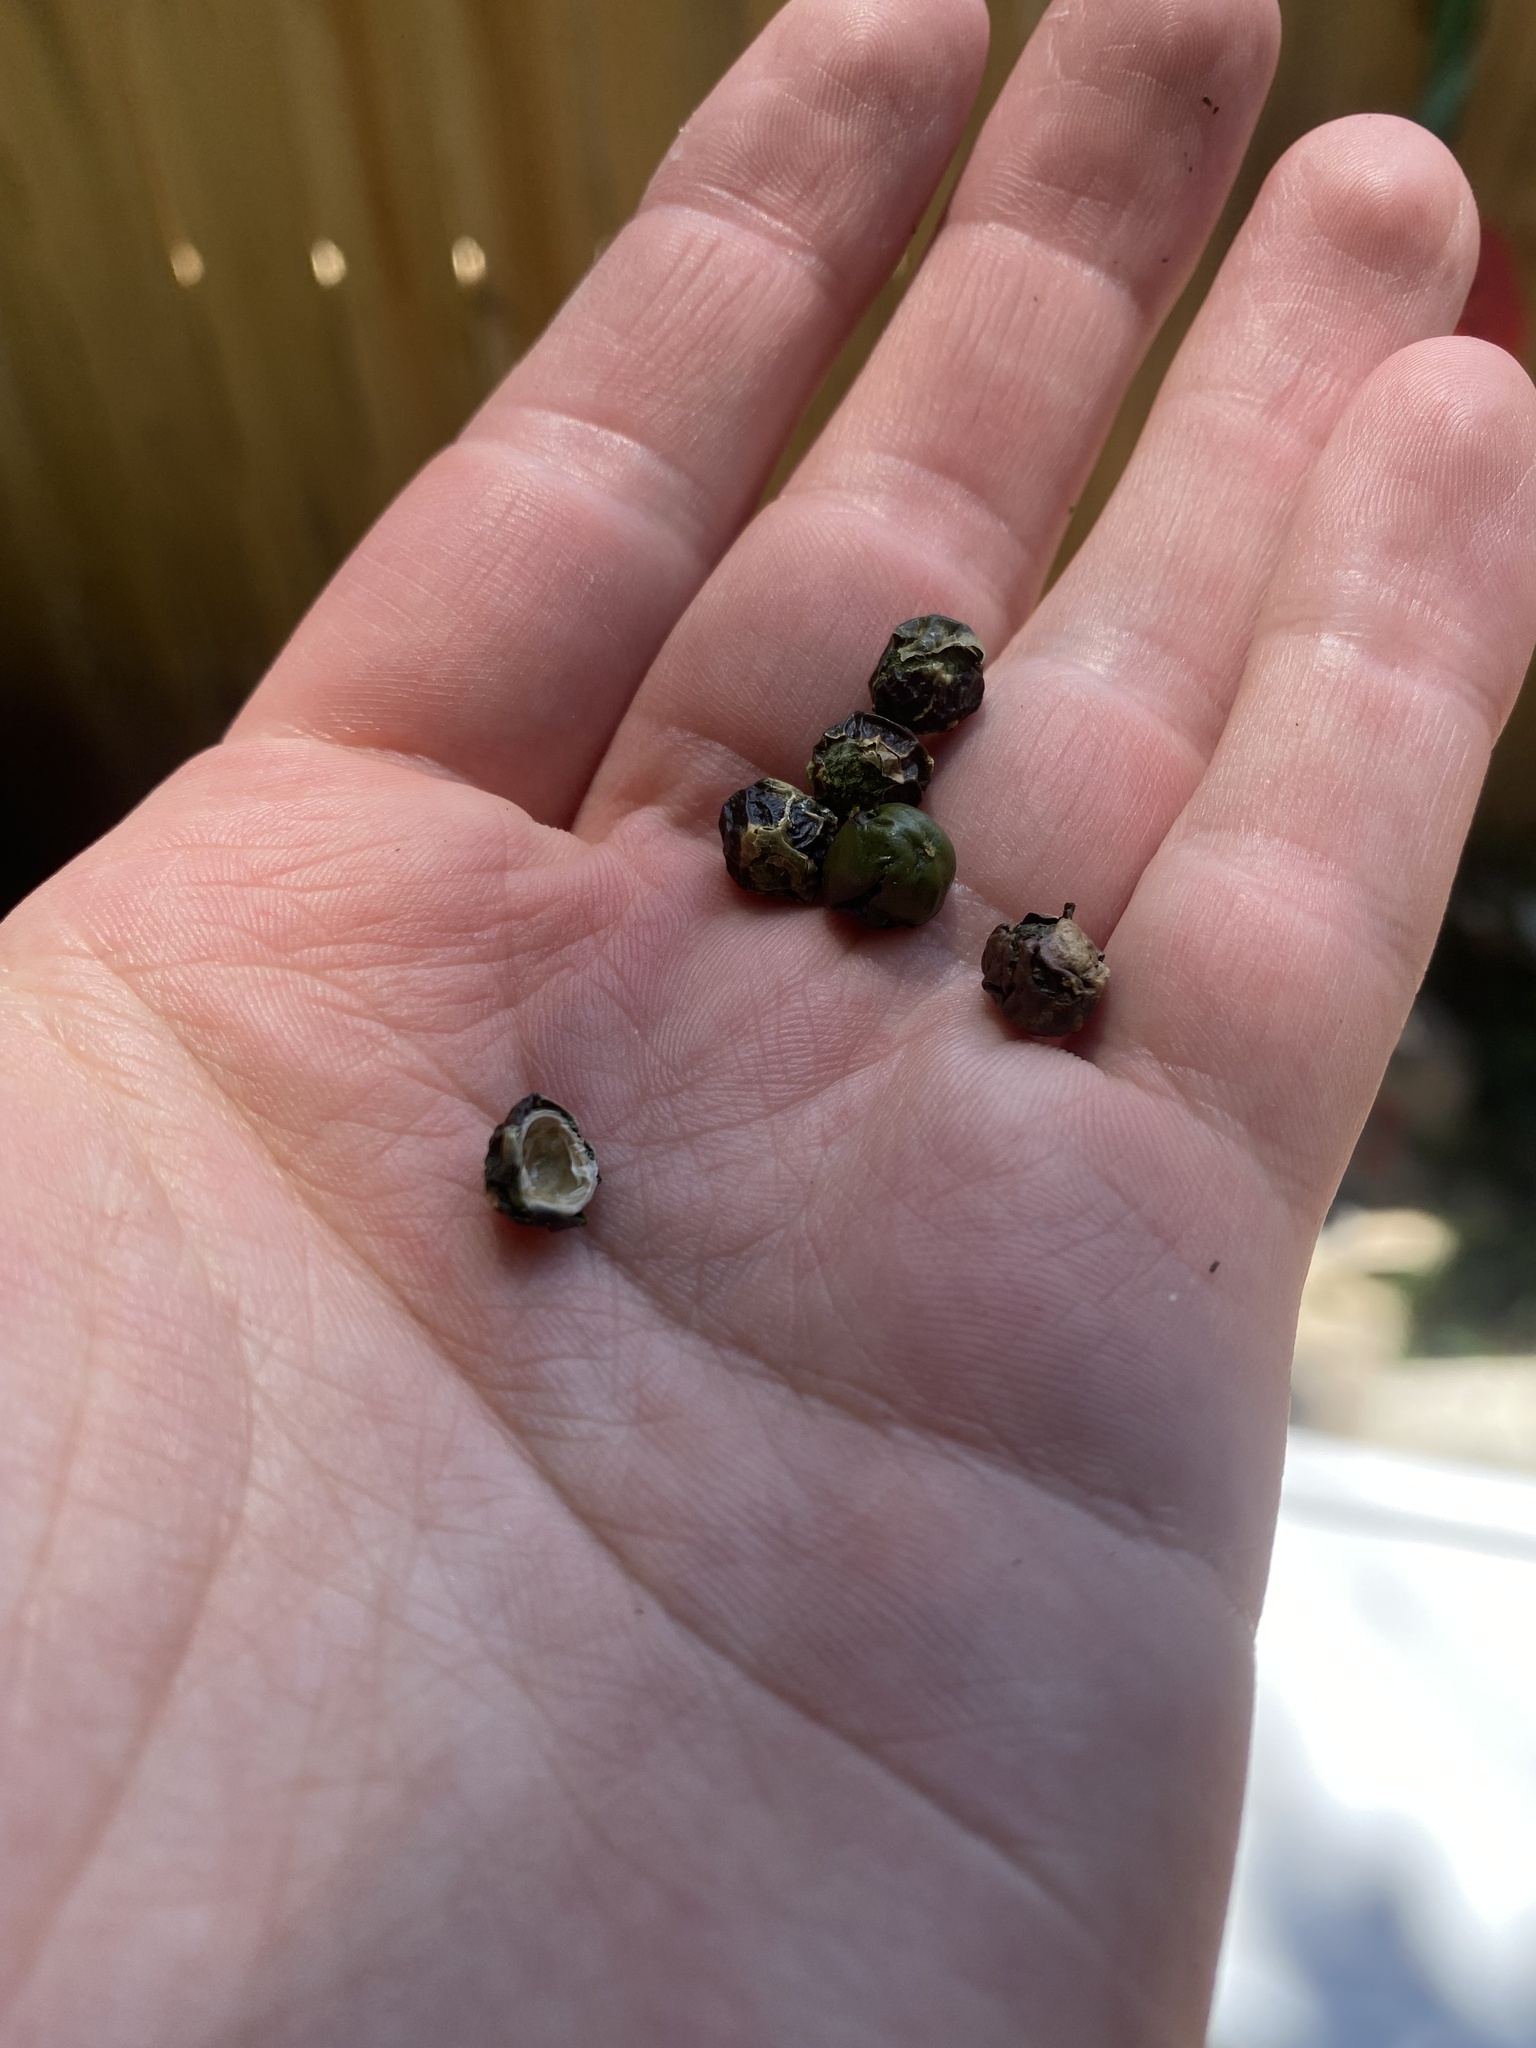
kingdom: Plantae
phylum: Tracheophyta
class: Magnoliopsida
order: Rosales
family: Cannabaceae
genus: Celtis
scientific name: Celtis occidentalis
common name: Common hackberry
